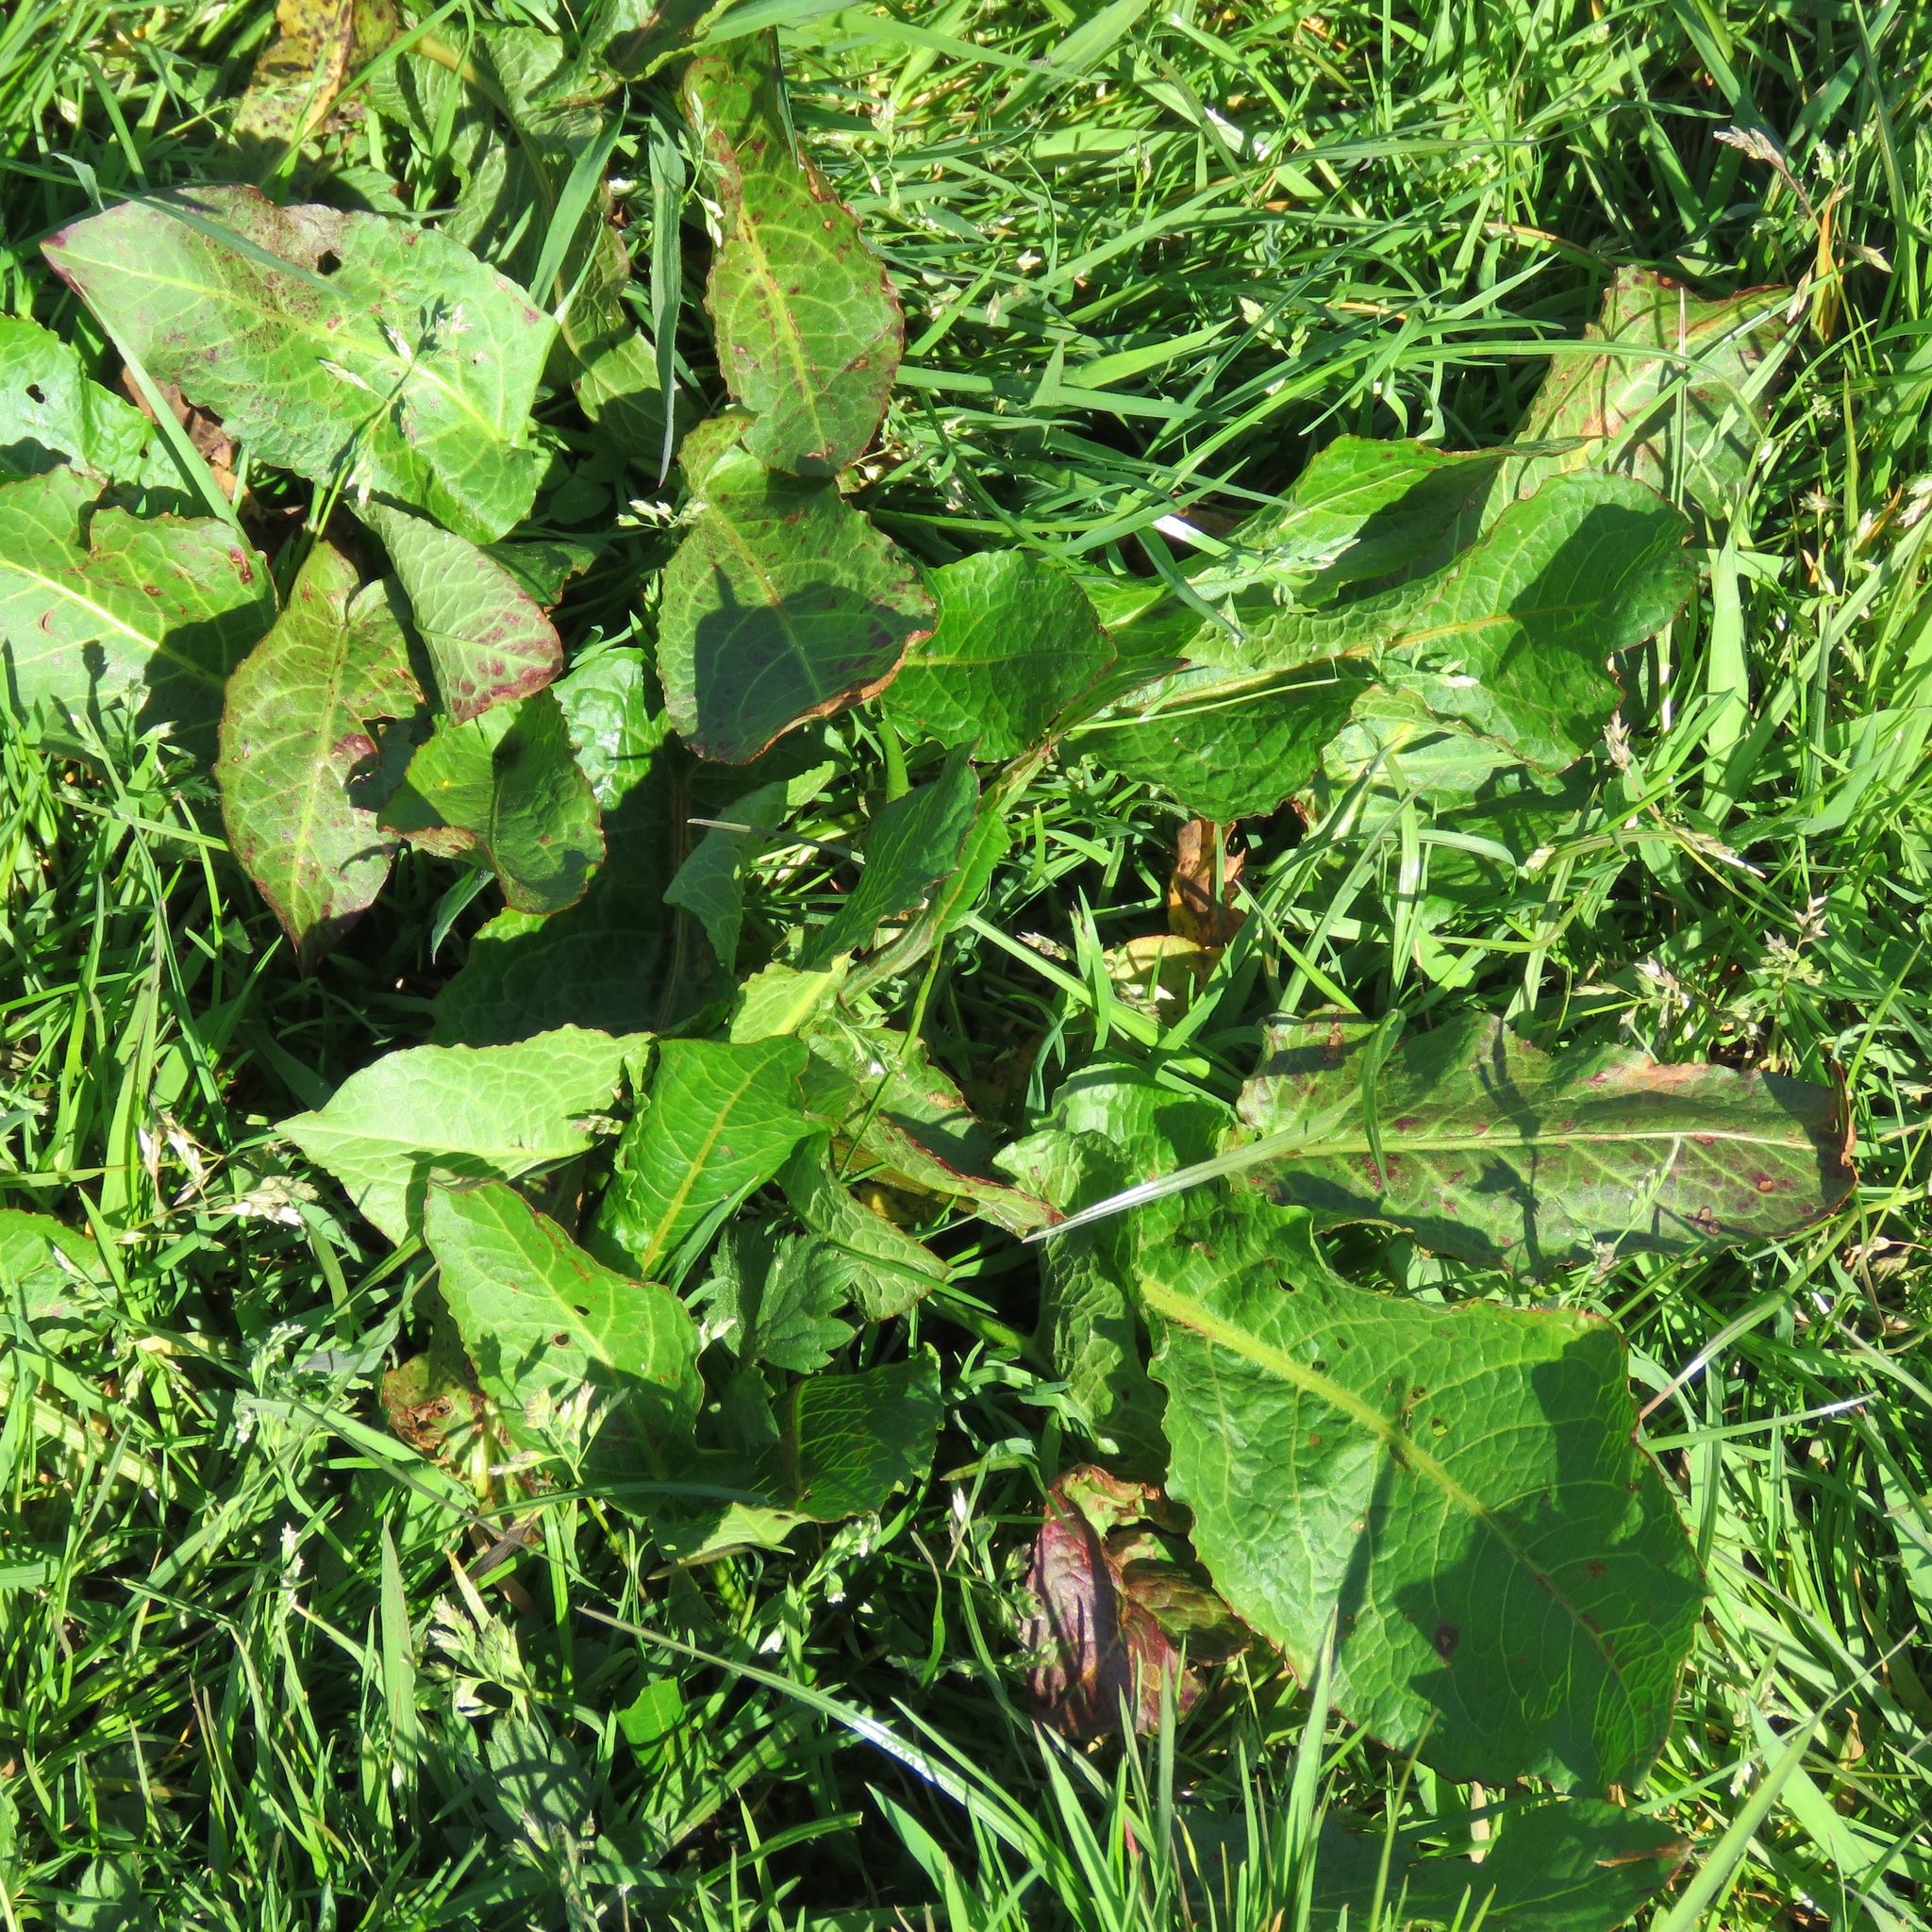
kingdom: Plantae
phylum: Tracheophyta
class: Magnoliopsida
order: Caryophyllales
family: Polygonaceae
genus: Rumex
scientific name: Rumex obtusifolius
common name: Bitter dock
